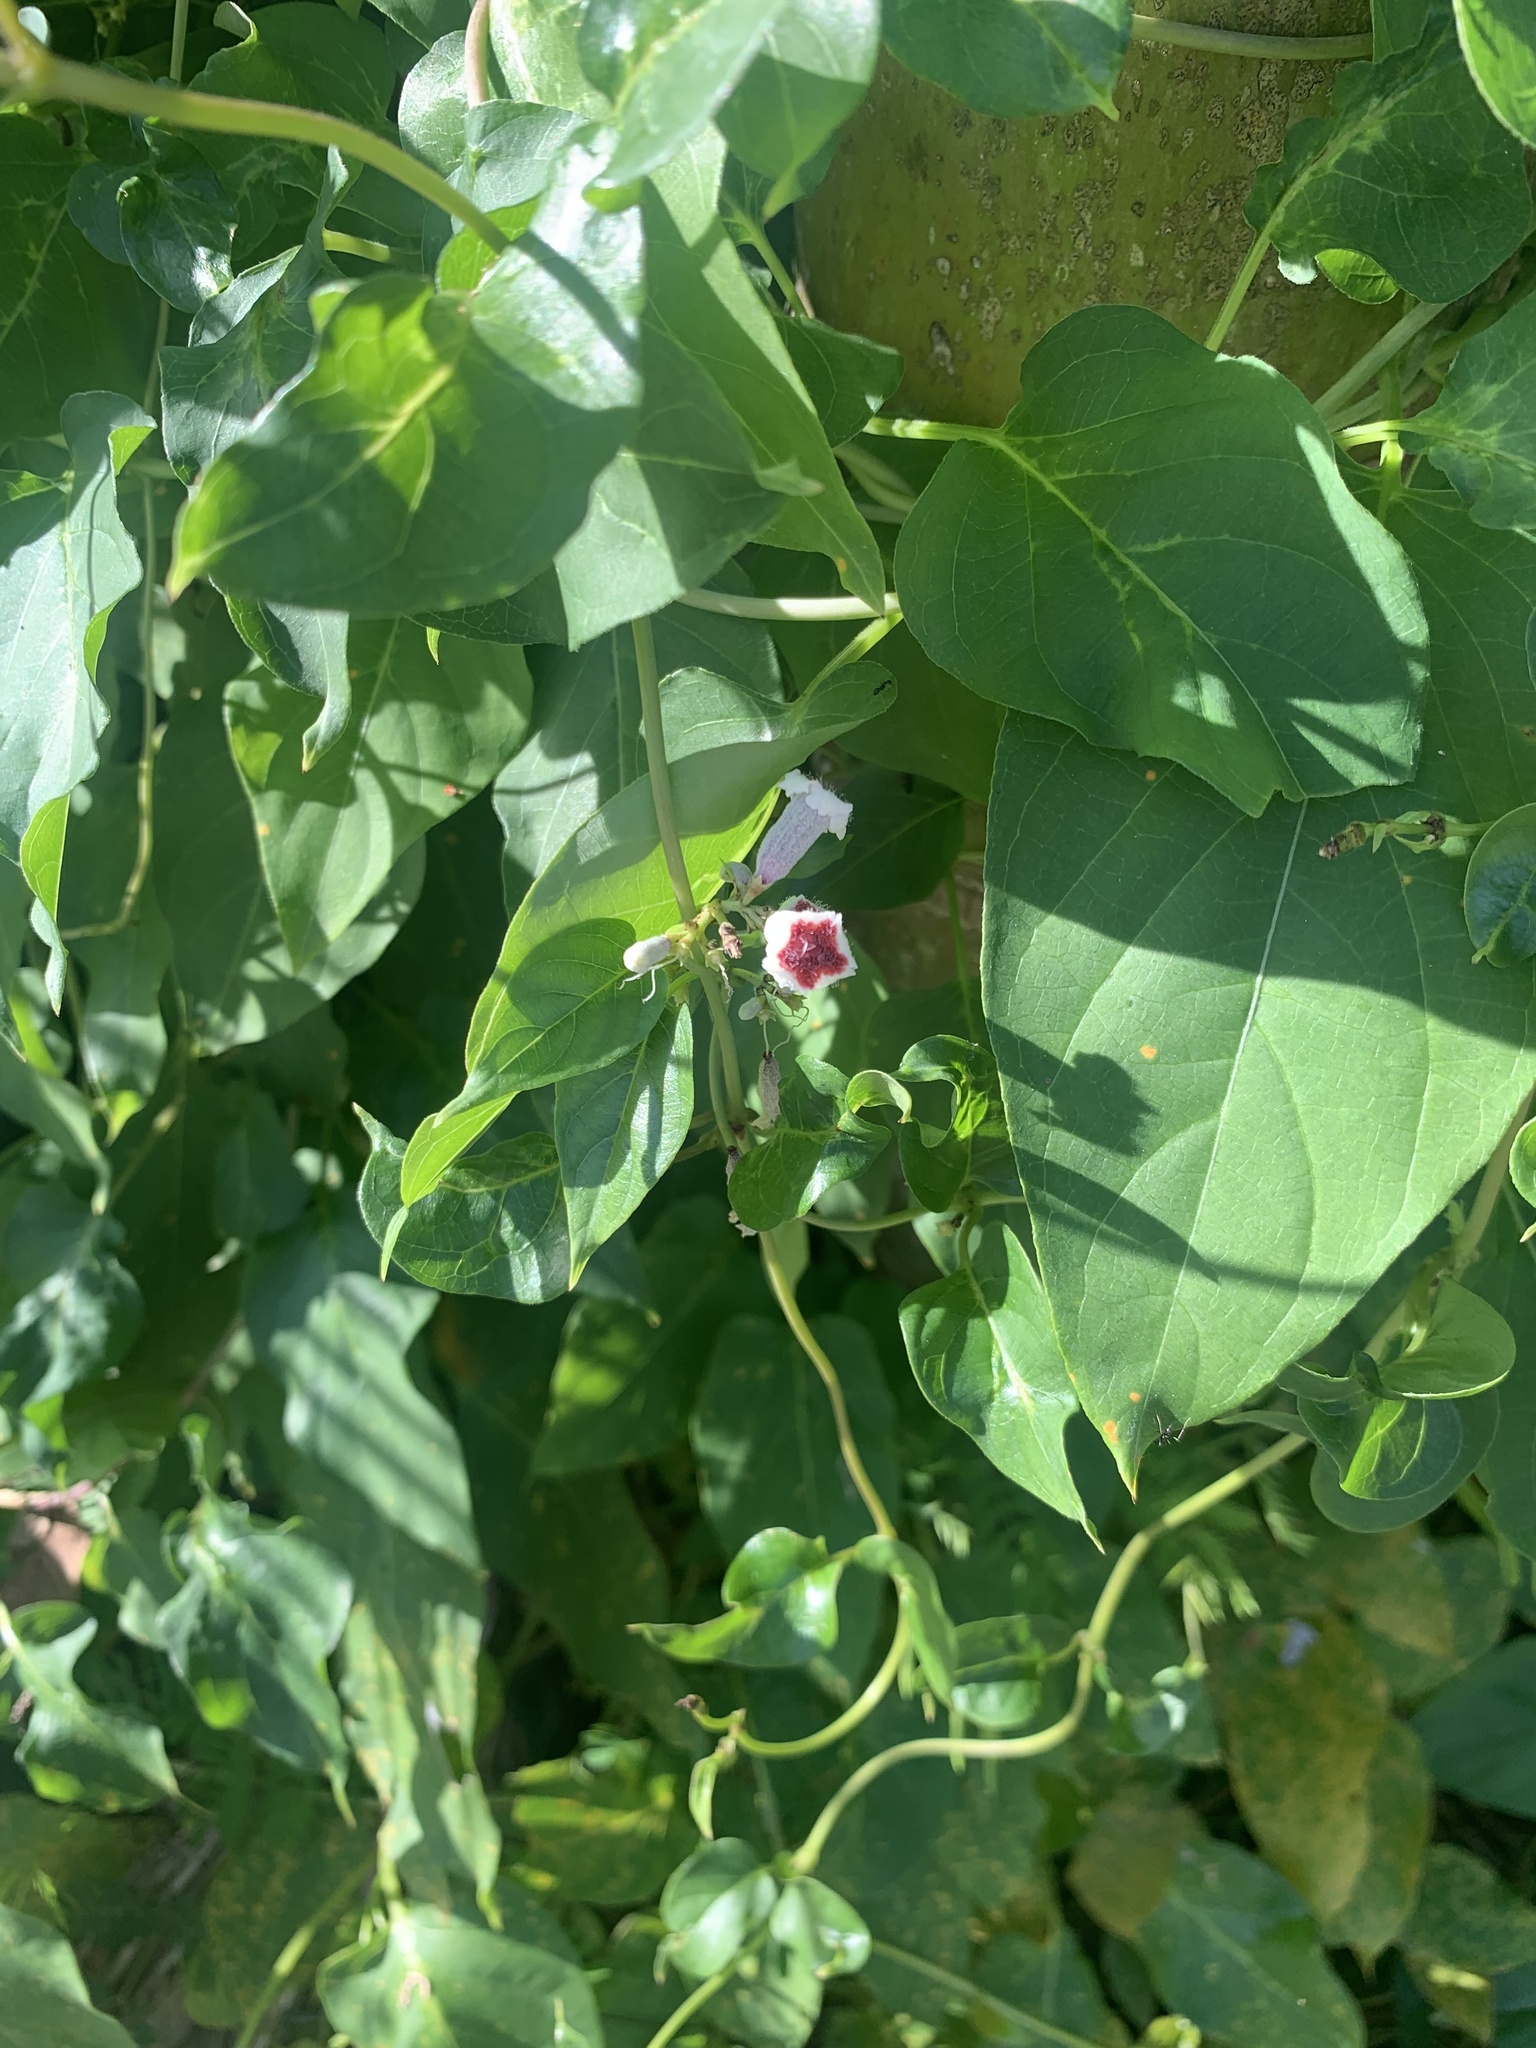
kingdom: Plantae
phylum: Tracheophyta
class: Magnoliopsida
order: Gentianales
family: Rubiaceae
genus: Paederia
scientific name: Paederia foetida
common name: Stinkvine
